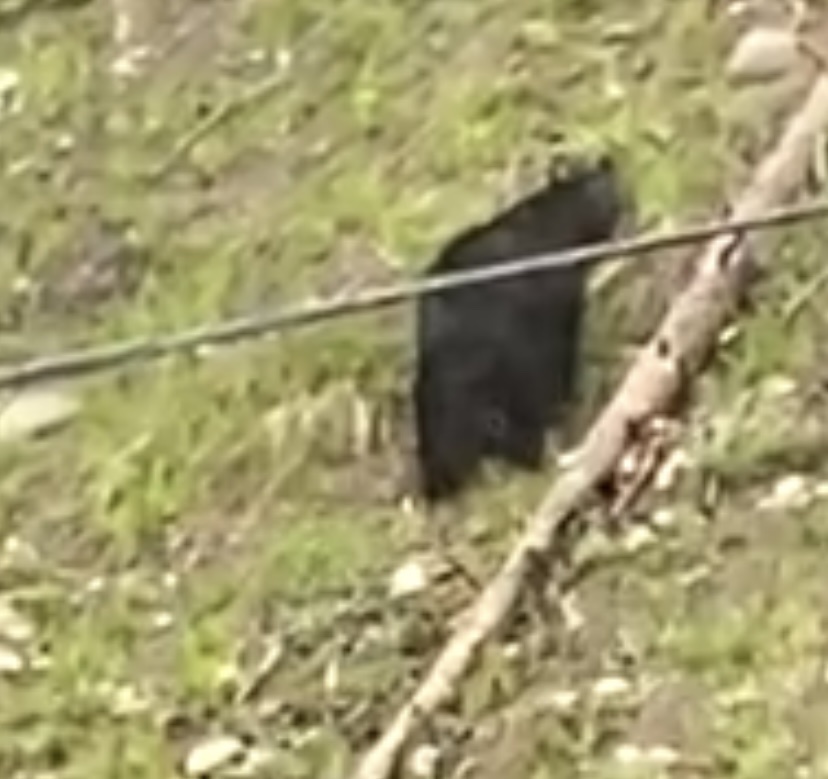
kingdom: Animalia
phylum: Chordata
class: Mammalia
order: Carnivora
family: Ursidae
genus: Ursus
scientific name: Ursus americanus
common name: American black bear
